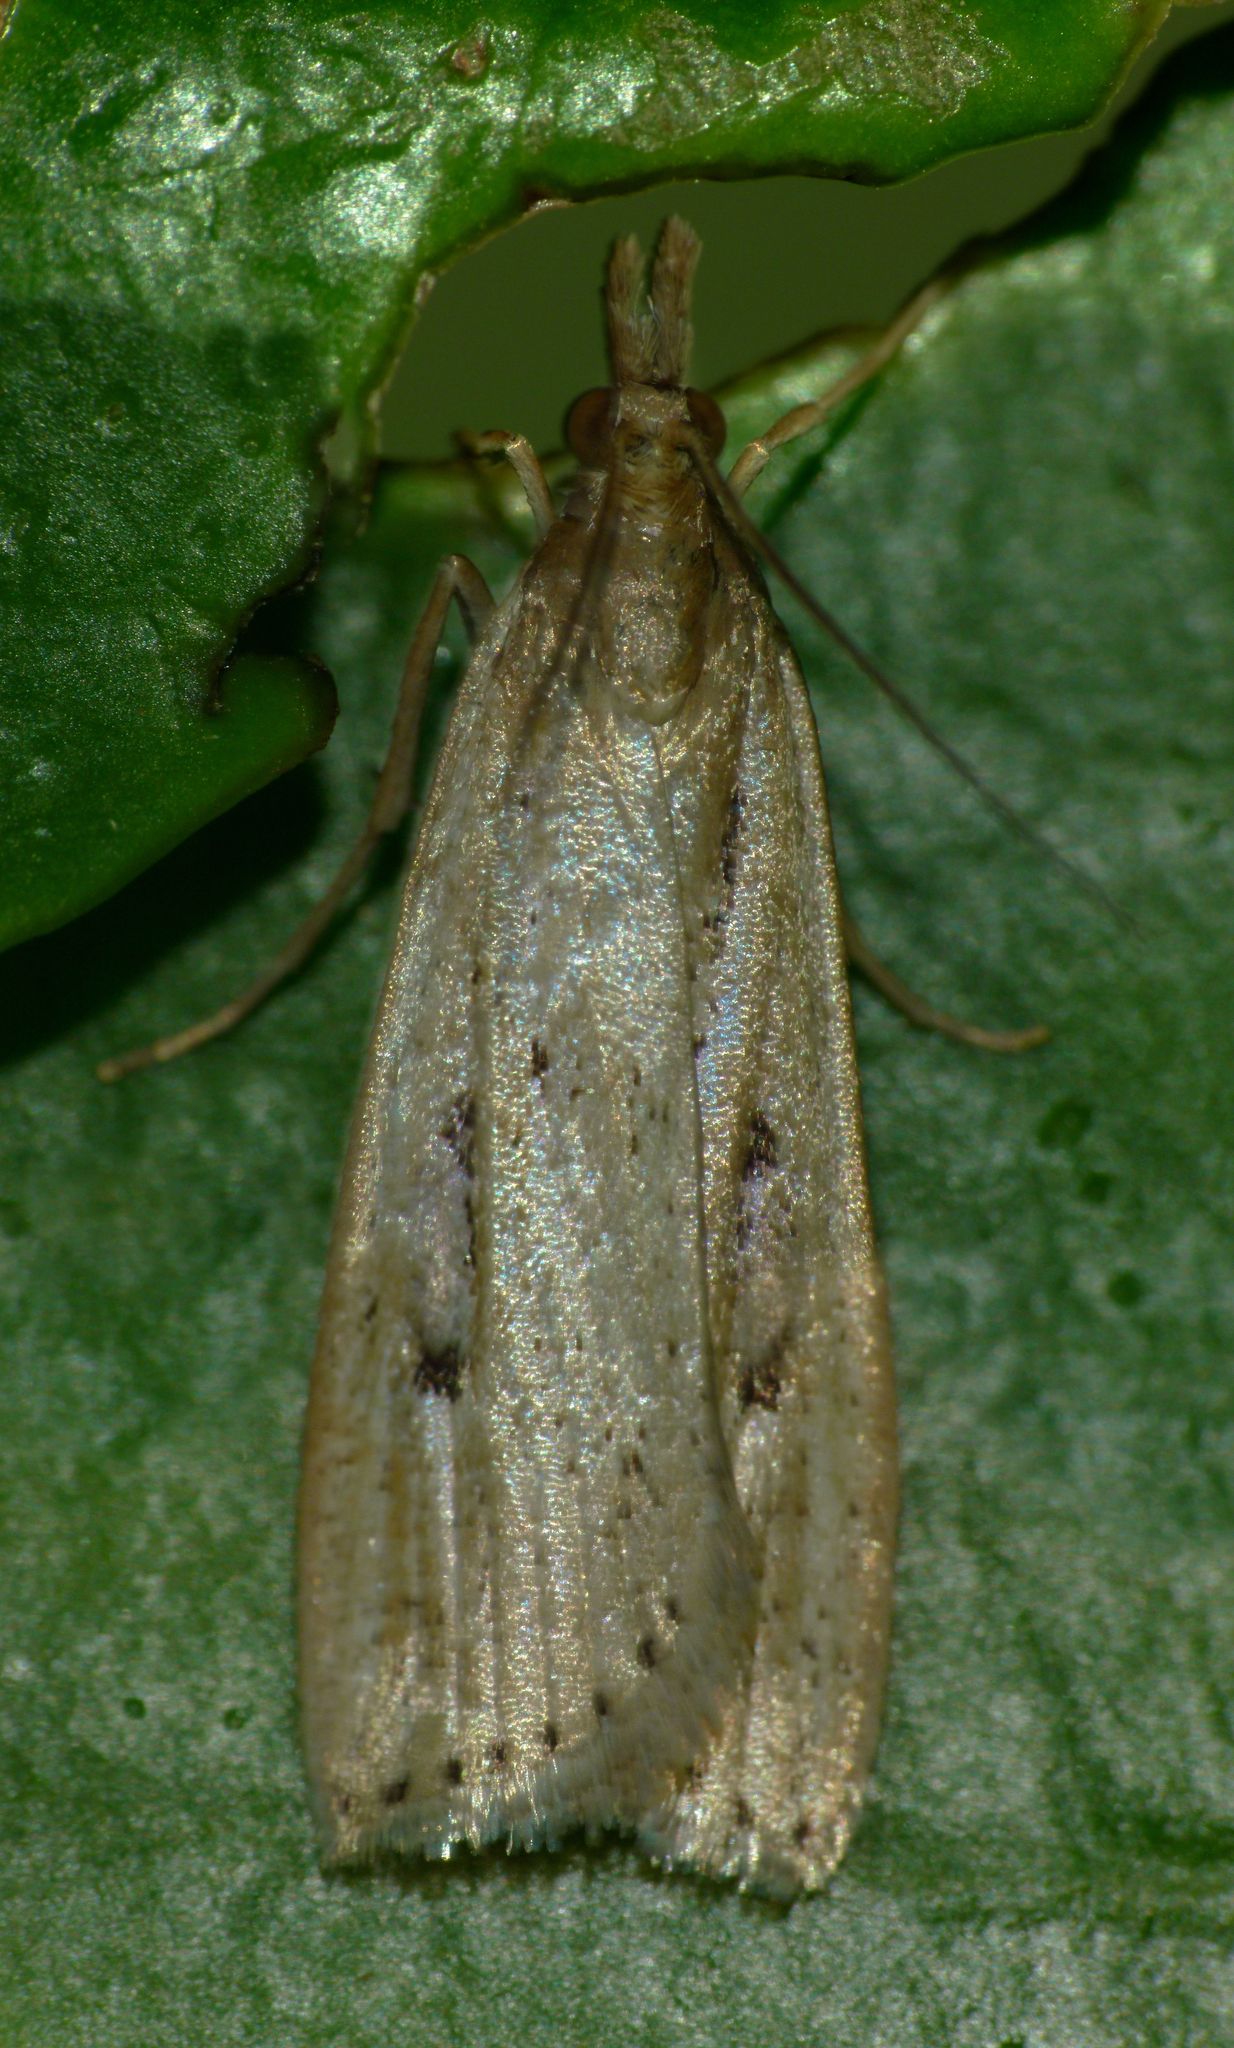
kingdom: Animalia
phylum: Arthropoda
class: Insecta
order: Lepidoptera
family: Crambidae
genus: Eudonia
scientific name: Eudonia sabulosella
